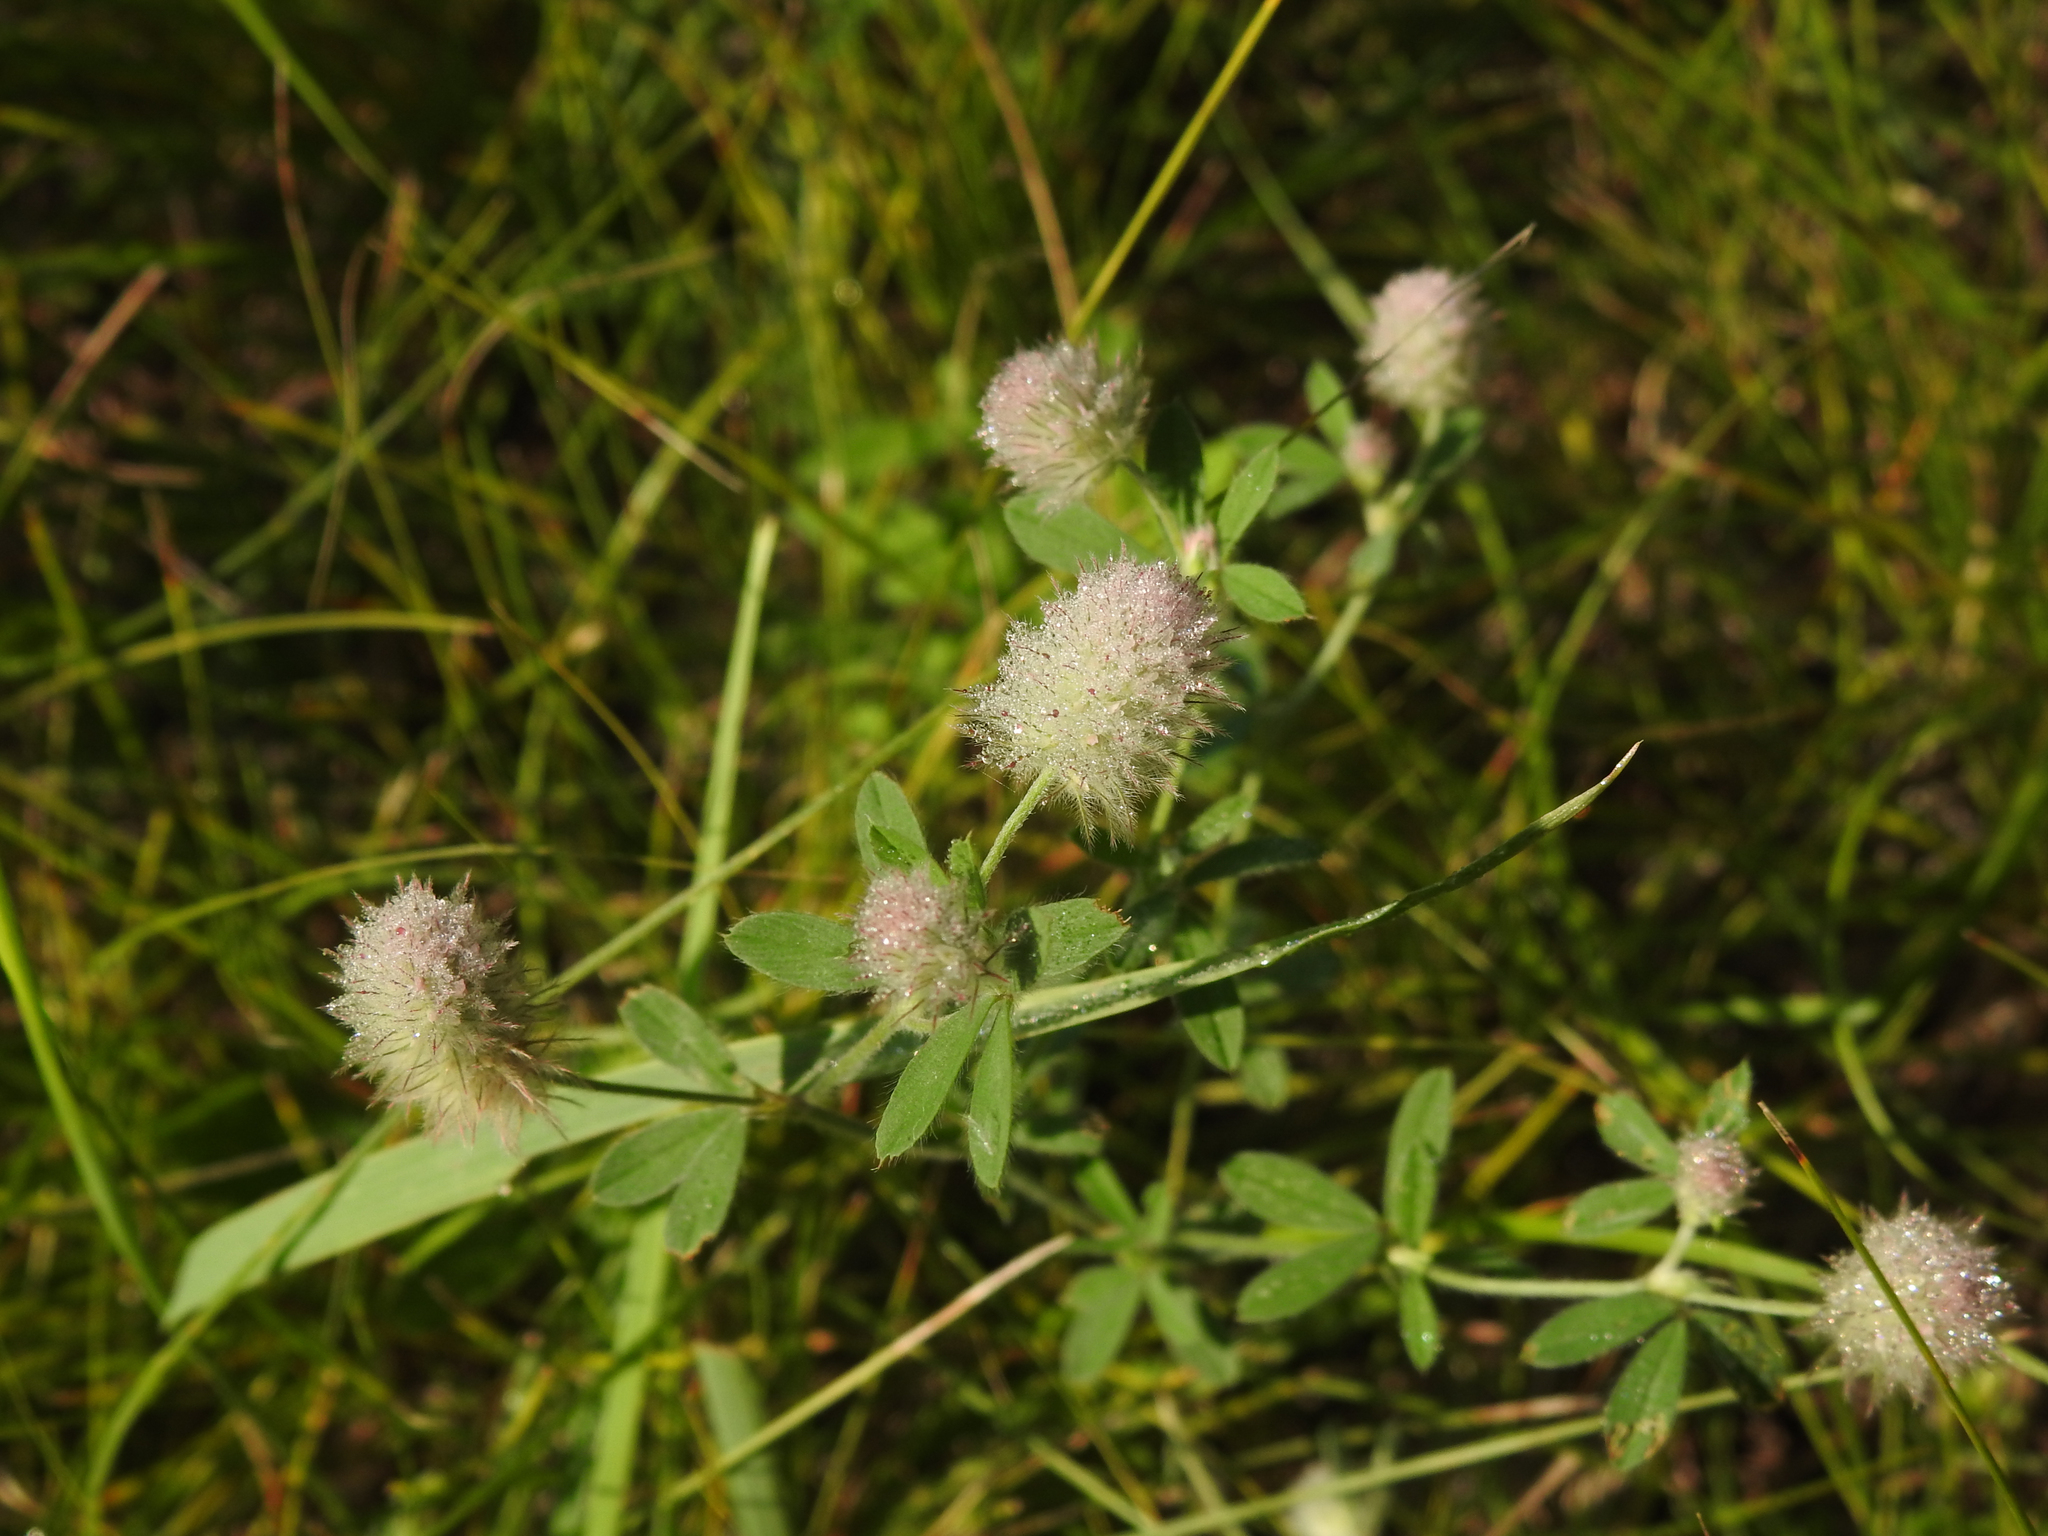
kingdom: Plantae
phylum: Tracheophyta
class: Magnoliopsida
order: Fabales
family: Fabaceae
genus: Trifolium
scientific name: Trifolium arvense
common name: Hare's-foot clover
